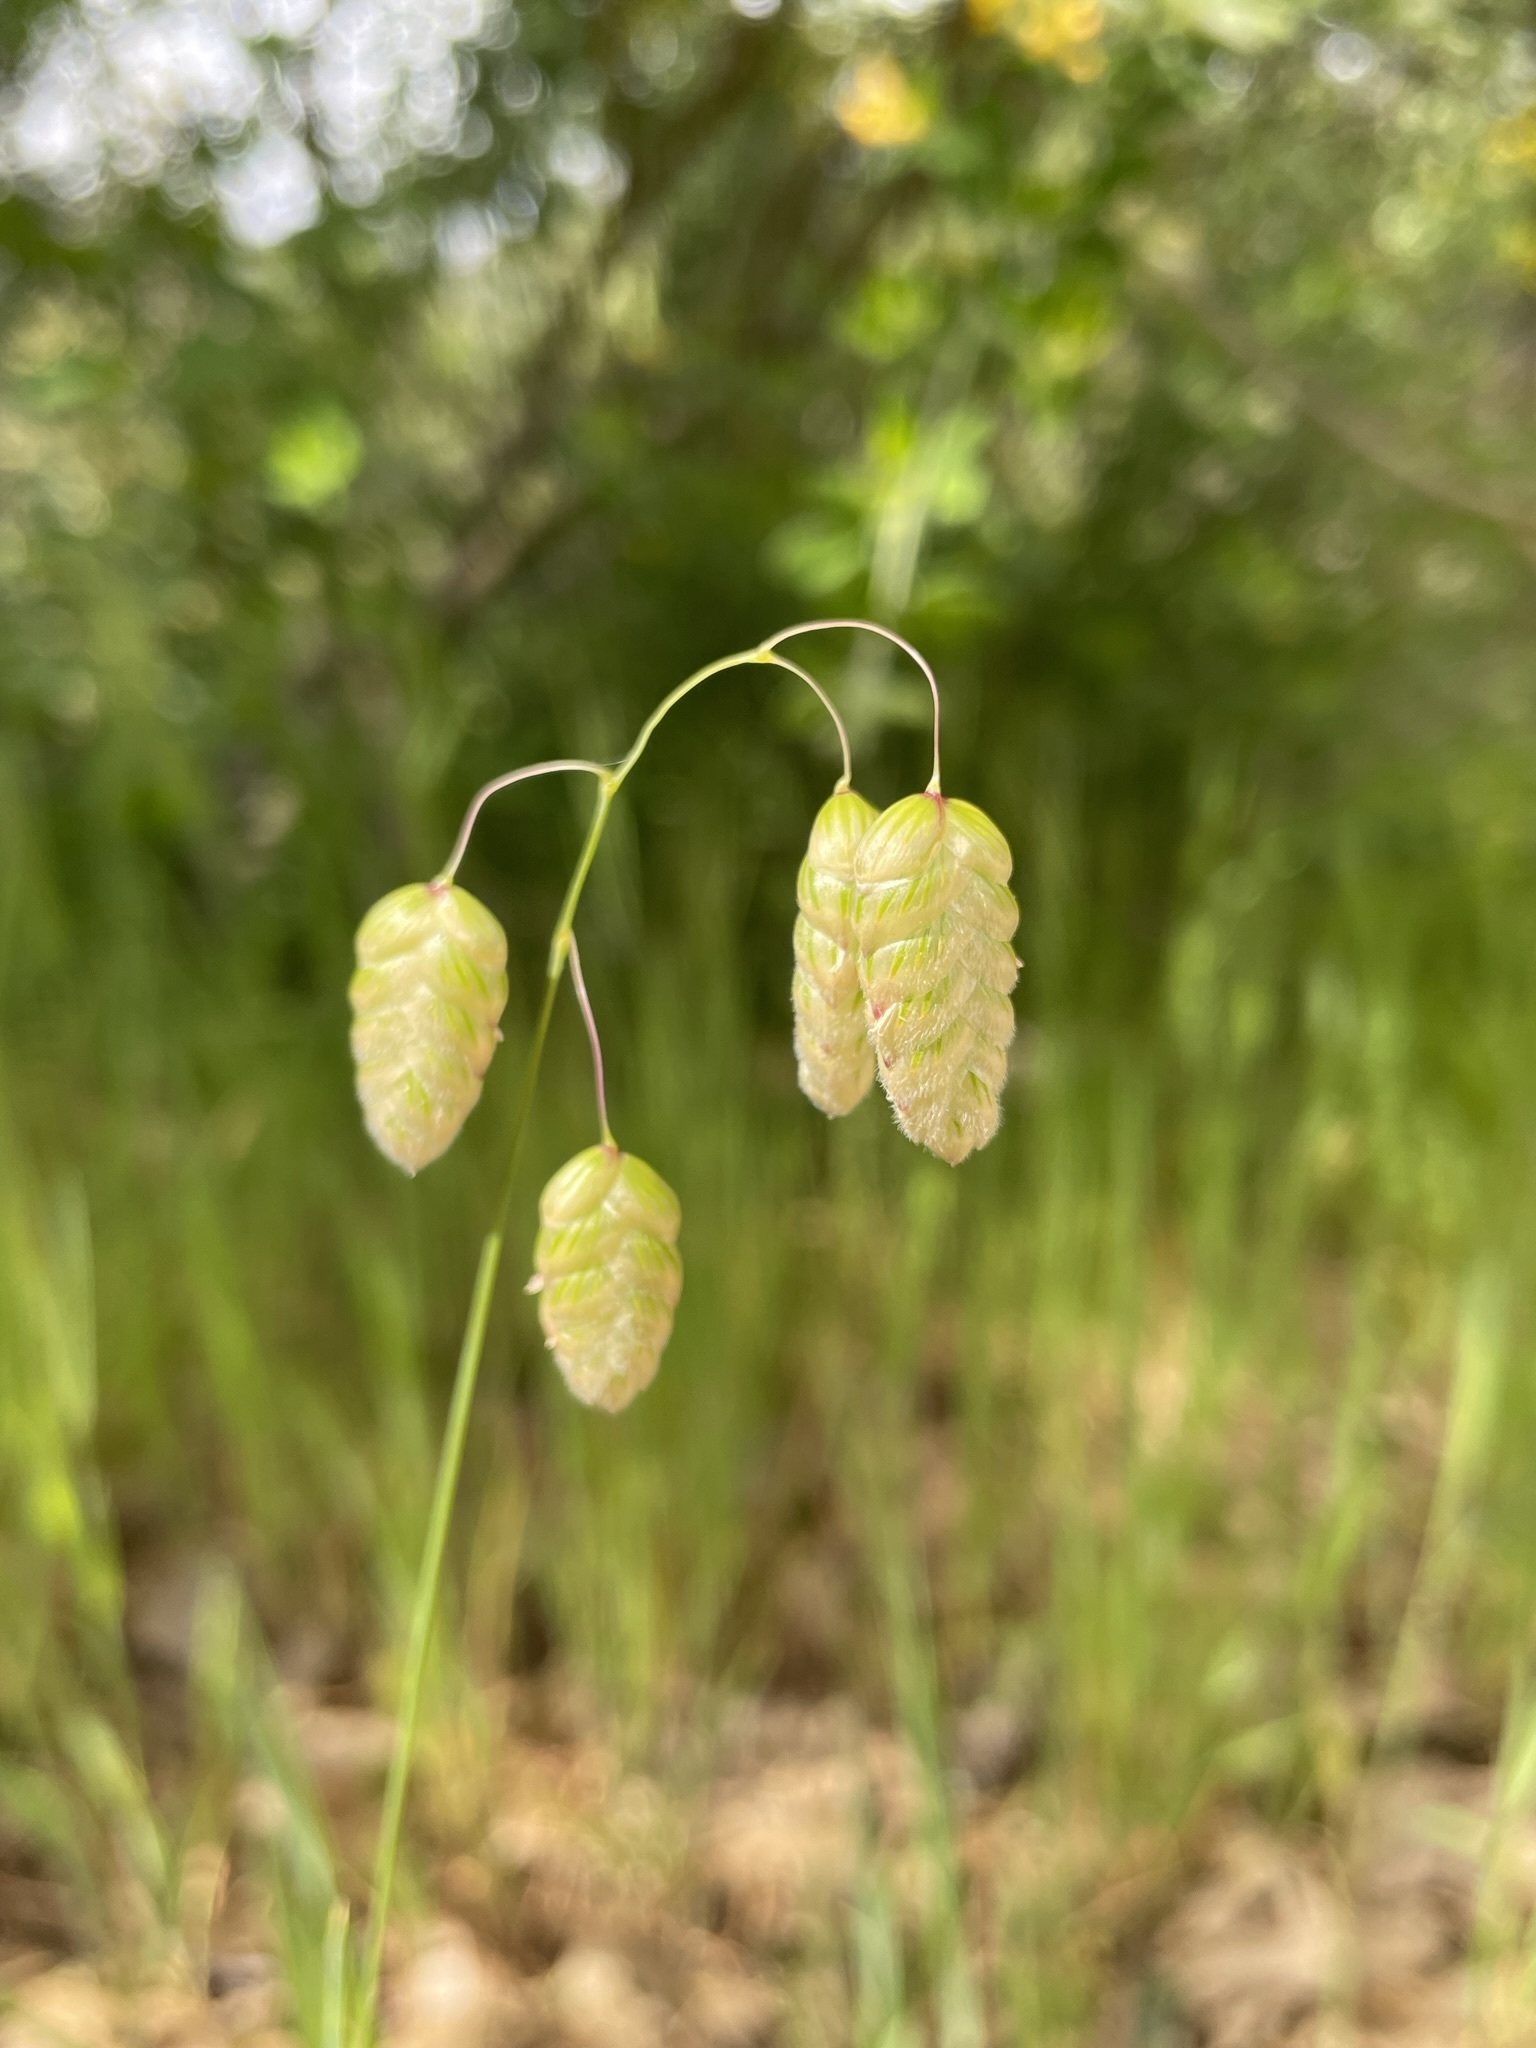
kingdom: Plantae
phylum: Tracheophyta
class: Liliopsida
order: Poales
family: Poaceae
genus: Briza
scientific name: Briza maxima
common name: Big quakinggrass
